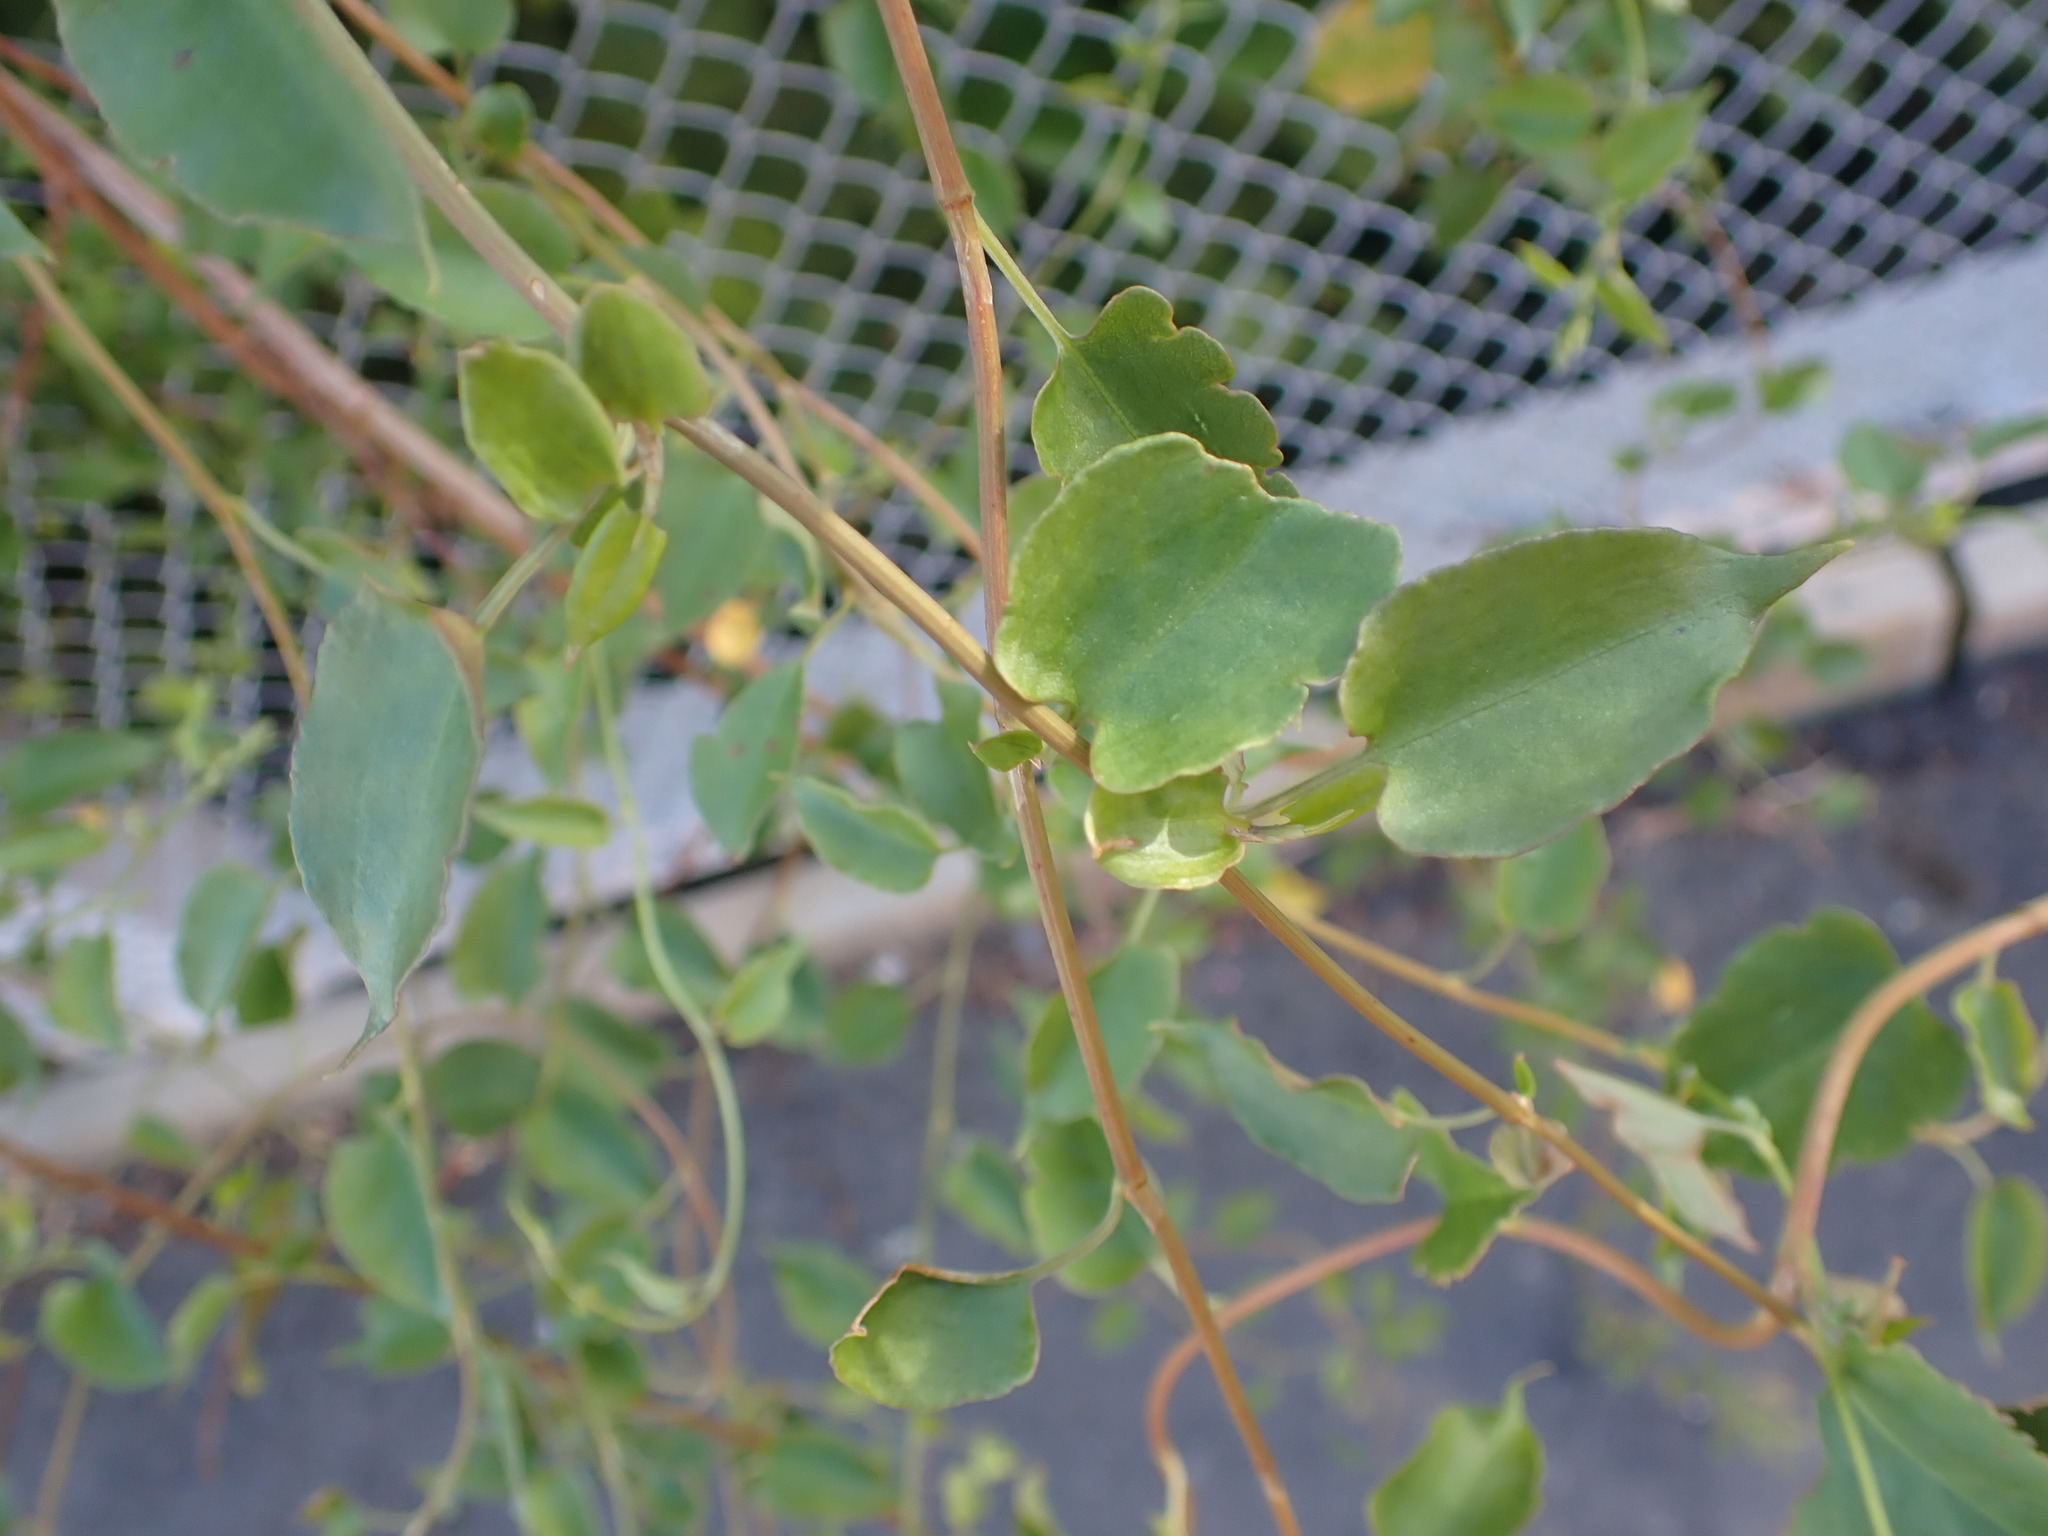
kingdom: Plantae
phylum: Tracheophyta
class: Magnoliopsida
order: Caryophyllales
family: Polygonaceae
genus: Muehlenbeckia
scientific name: Muehlenbeckia australis
